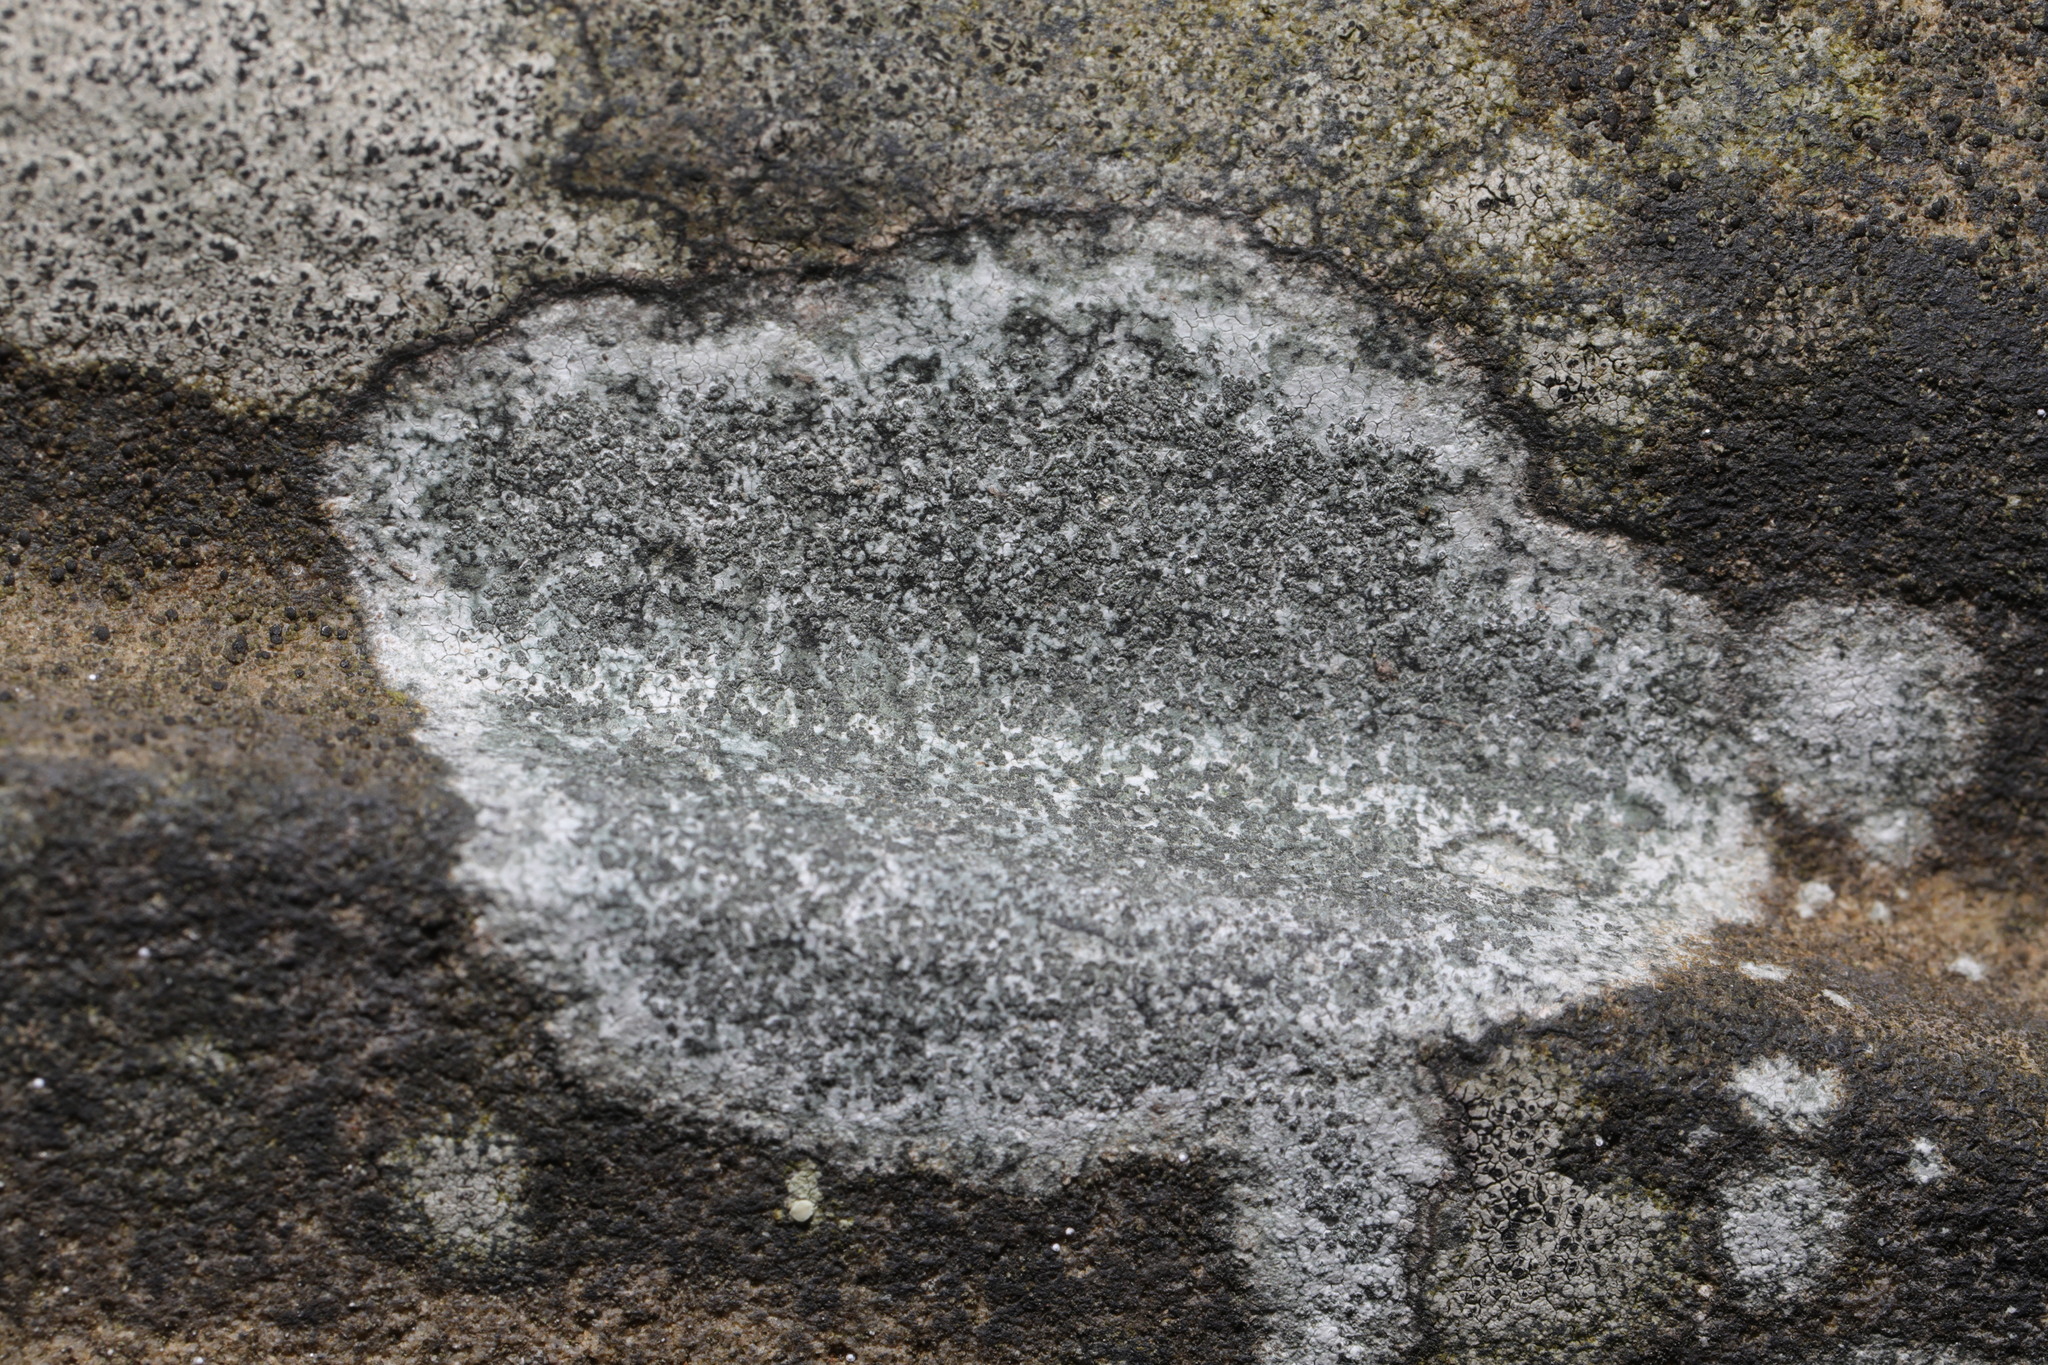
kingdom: Fungi
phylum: Ascomycota
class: Lecanoromycetes
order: Lecideales
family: Lecideaceae
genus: Porpidia
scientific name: Porpidia tuberculosa
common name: Boulder lichen
